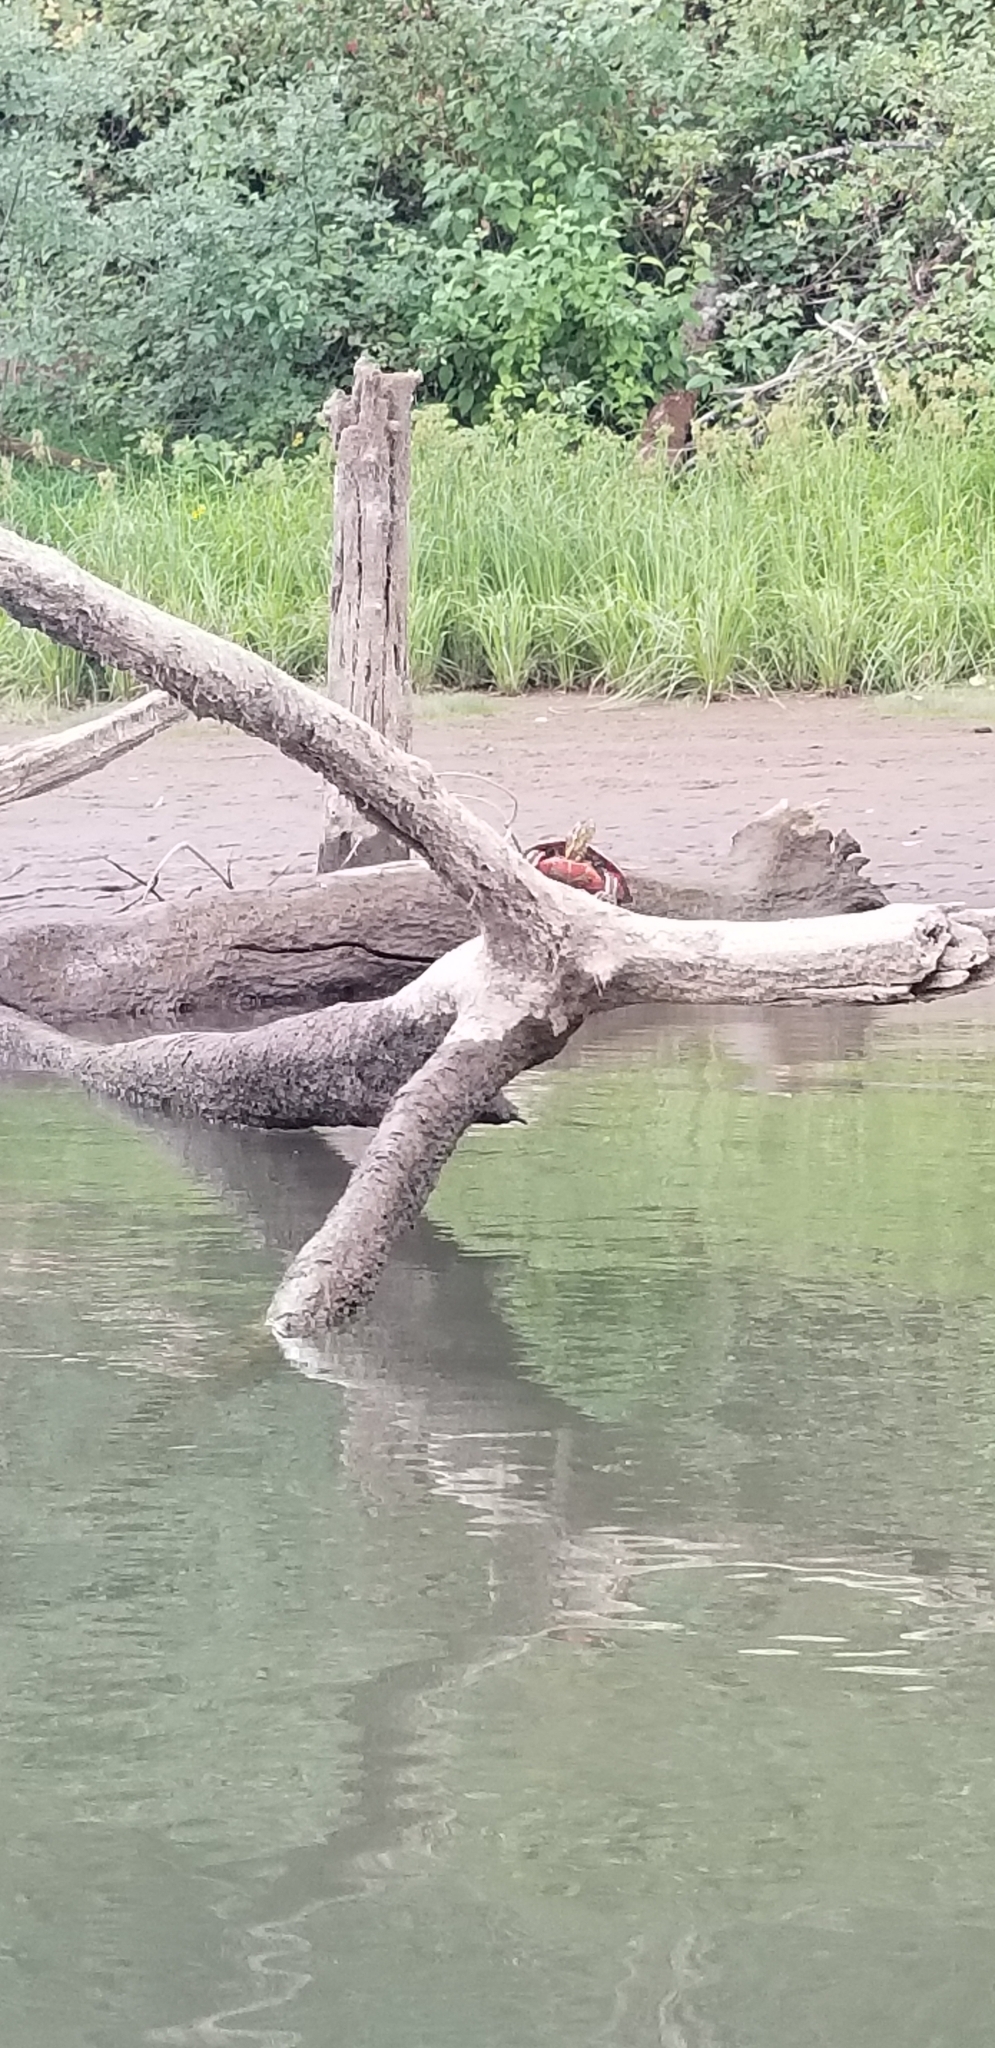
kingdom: Animalia
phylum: Chordata
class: Testudines
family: Emydidae
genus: Chrysemys
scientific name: Chrysemys picta
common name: Painted turtle
